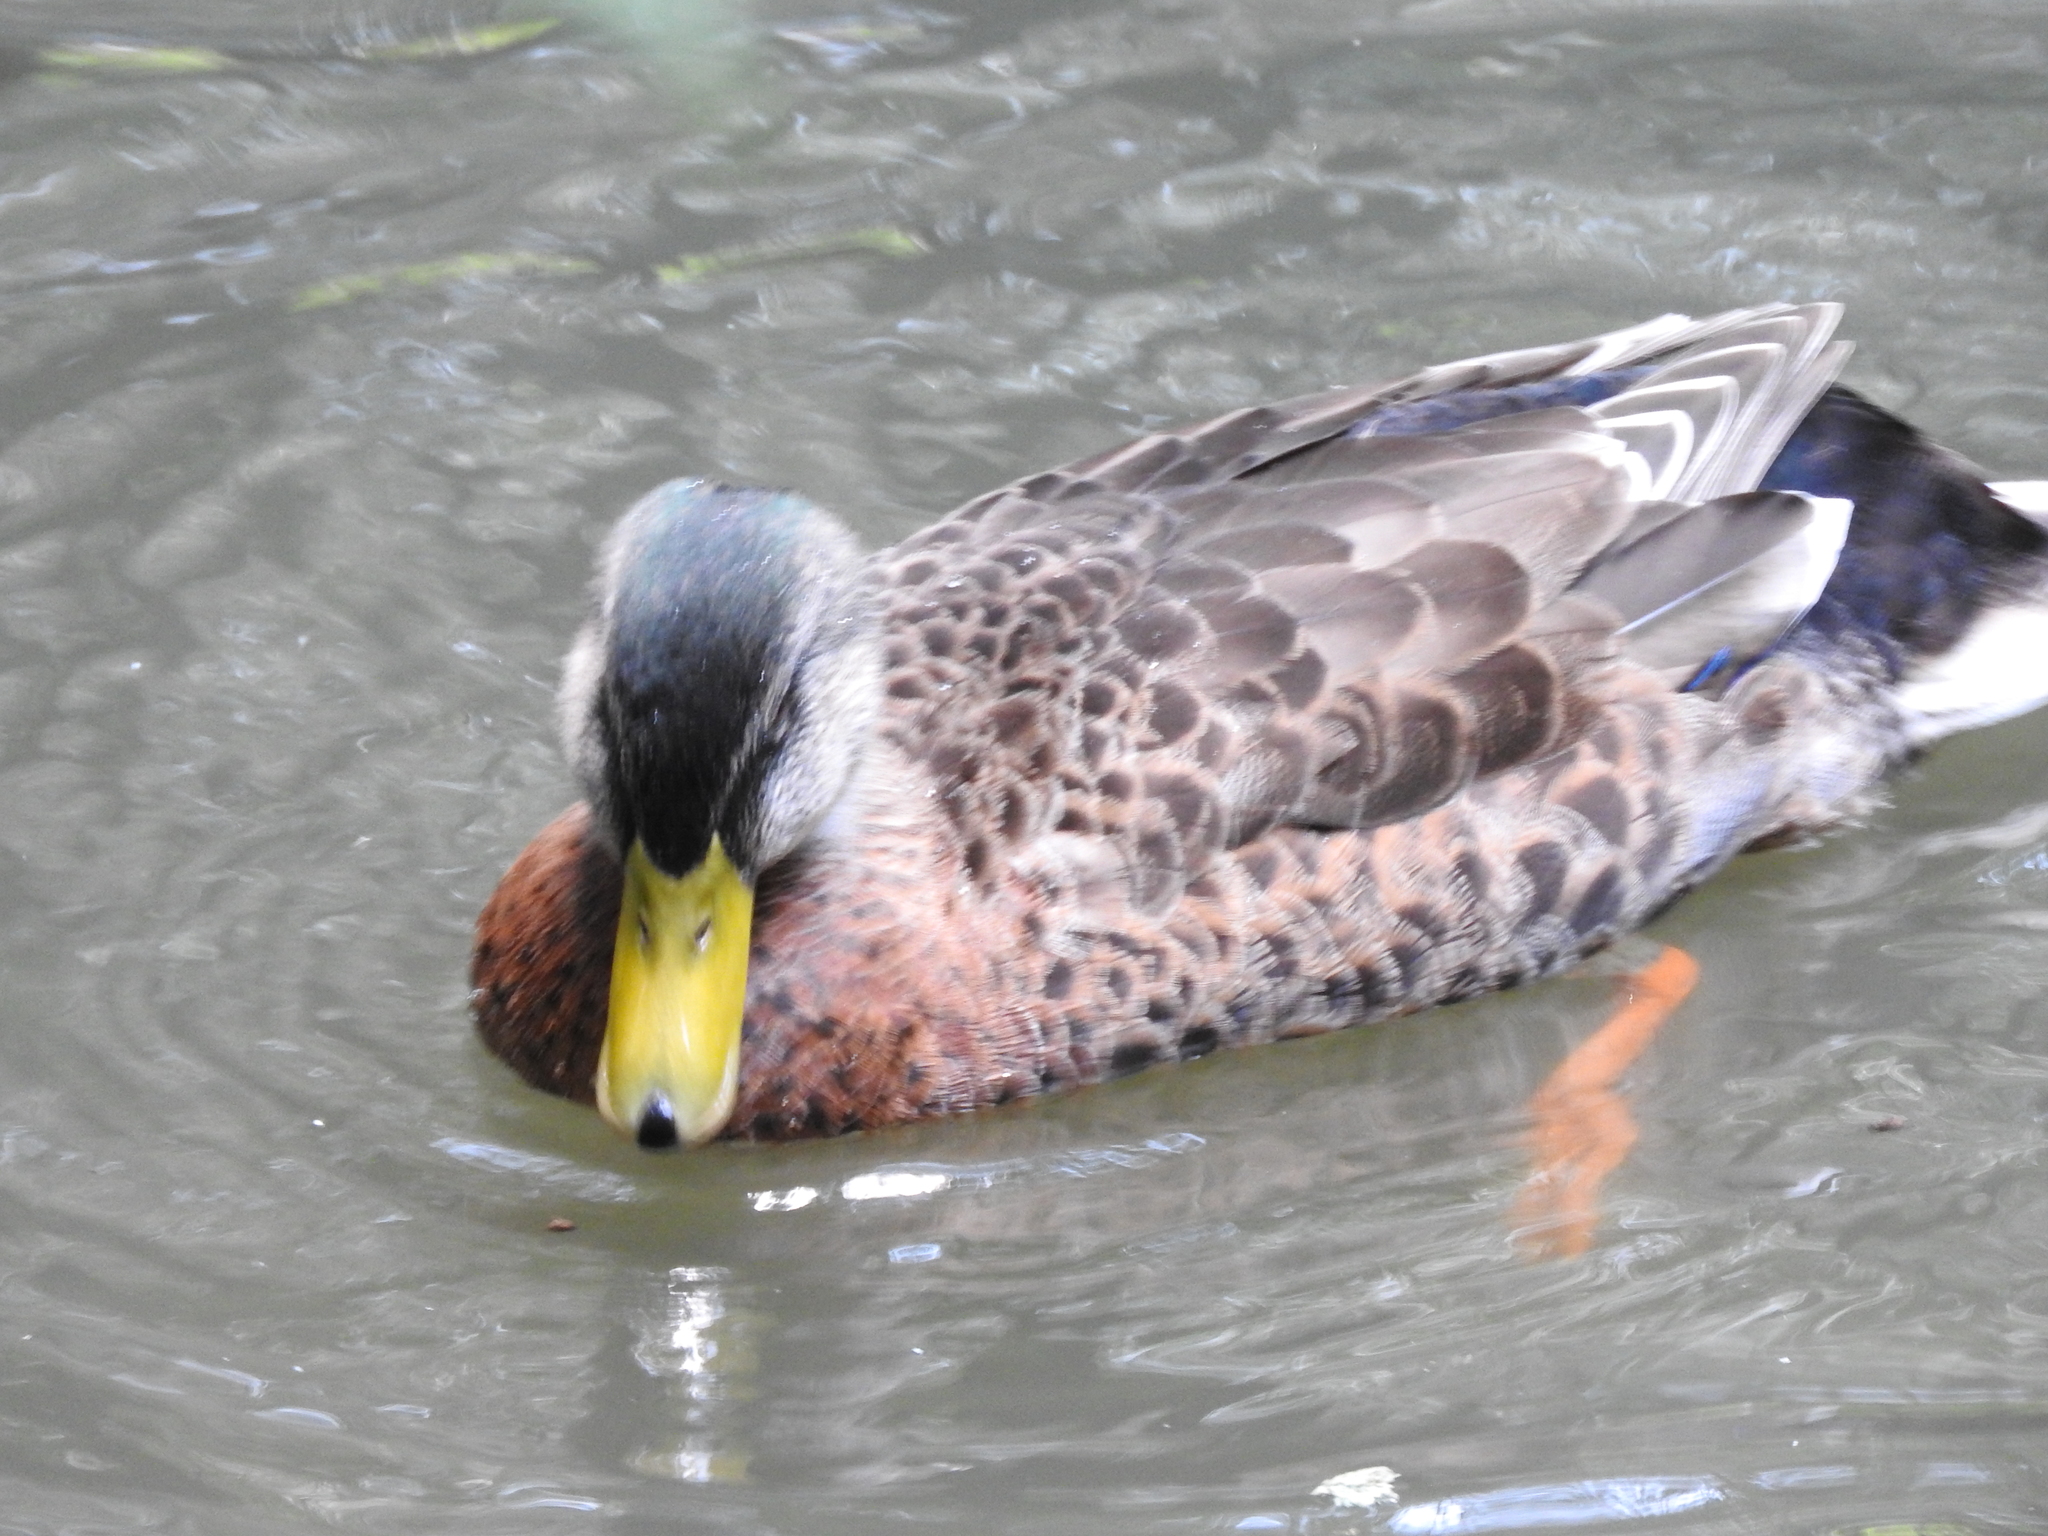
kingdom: Animalia
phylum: Chordata
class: Aves
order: Anseriformes
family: Anatidae
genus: Anas
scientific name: Anas platyrhynchos
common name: Mallard
